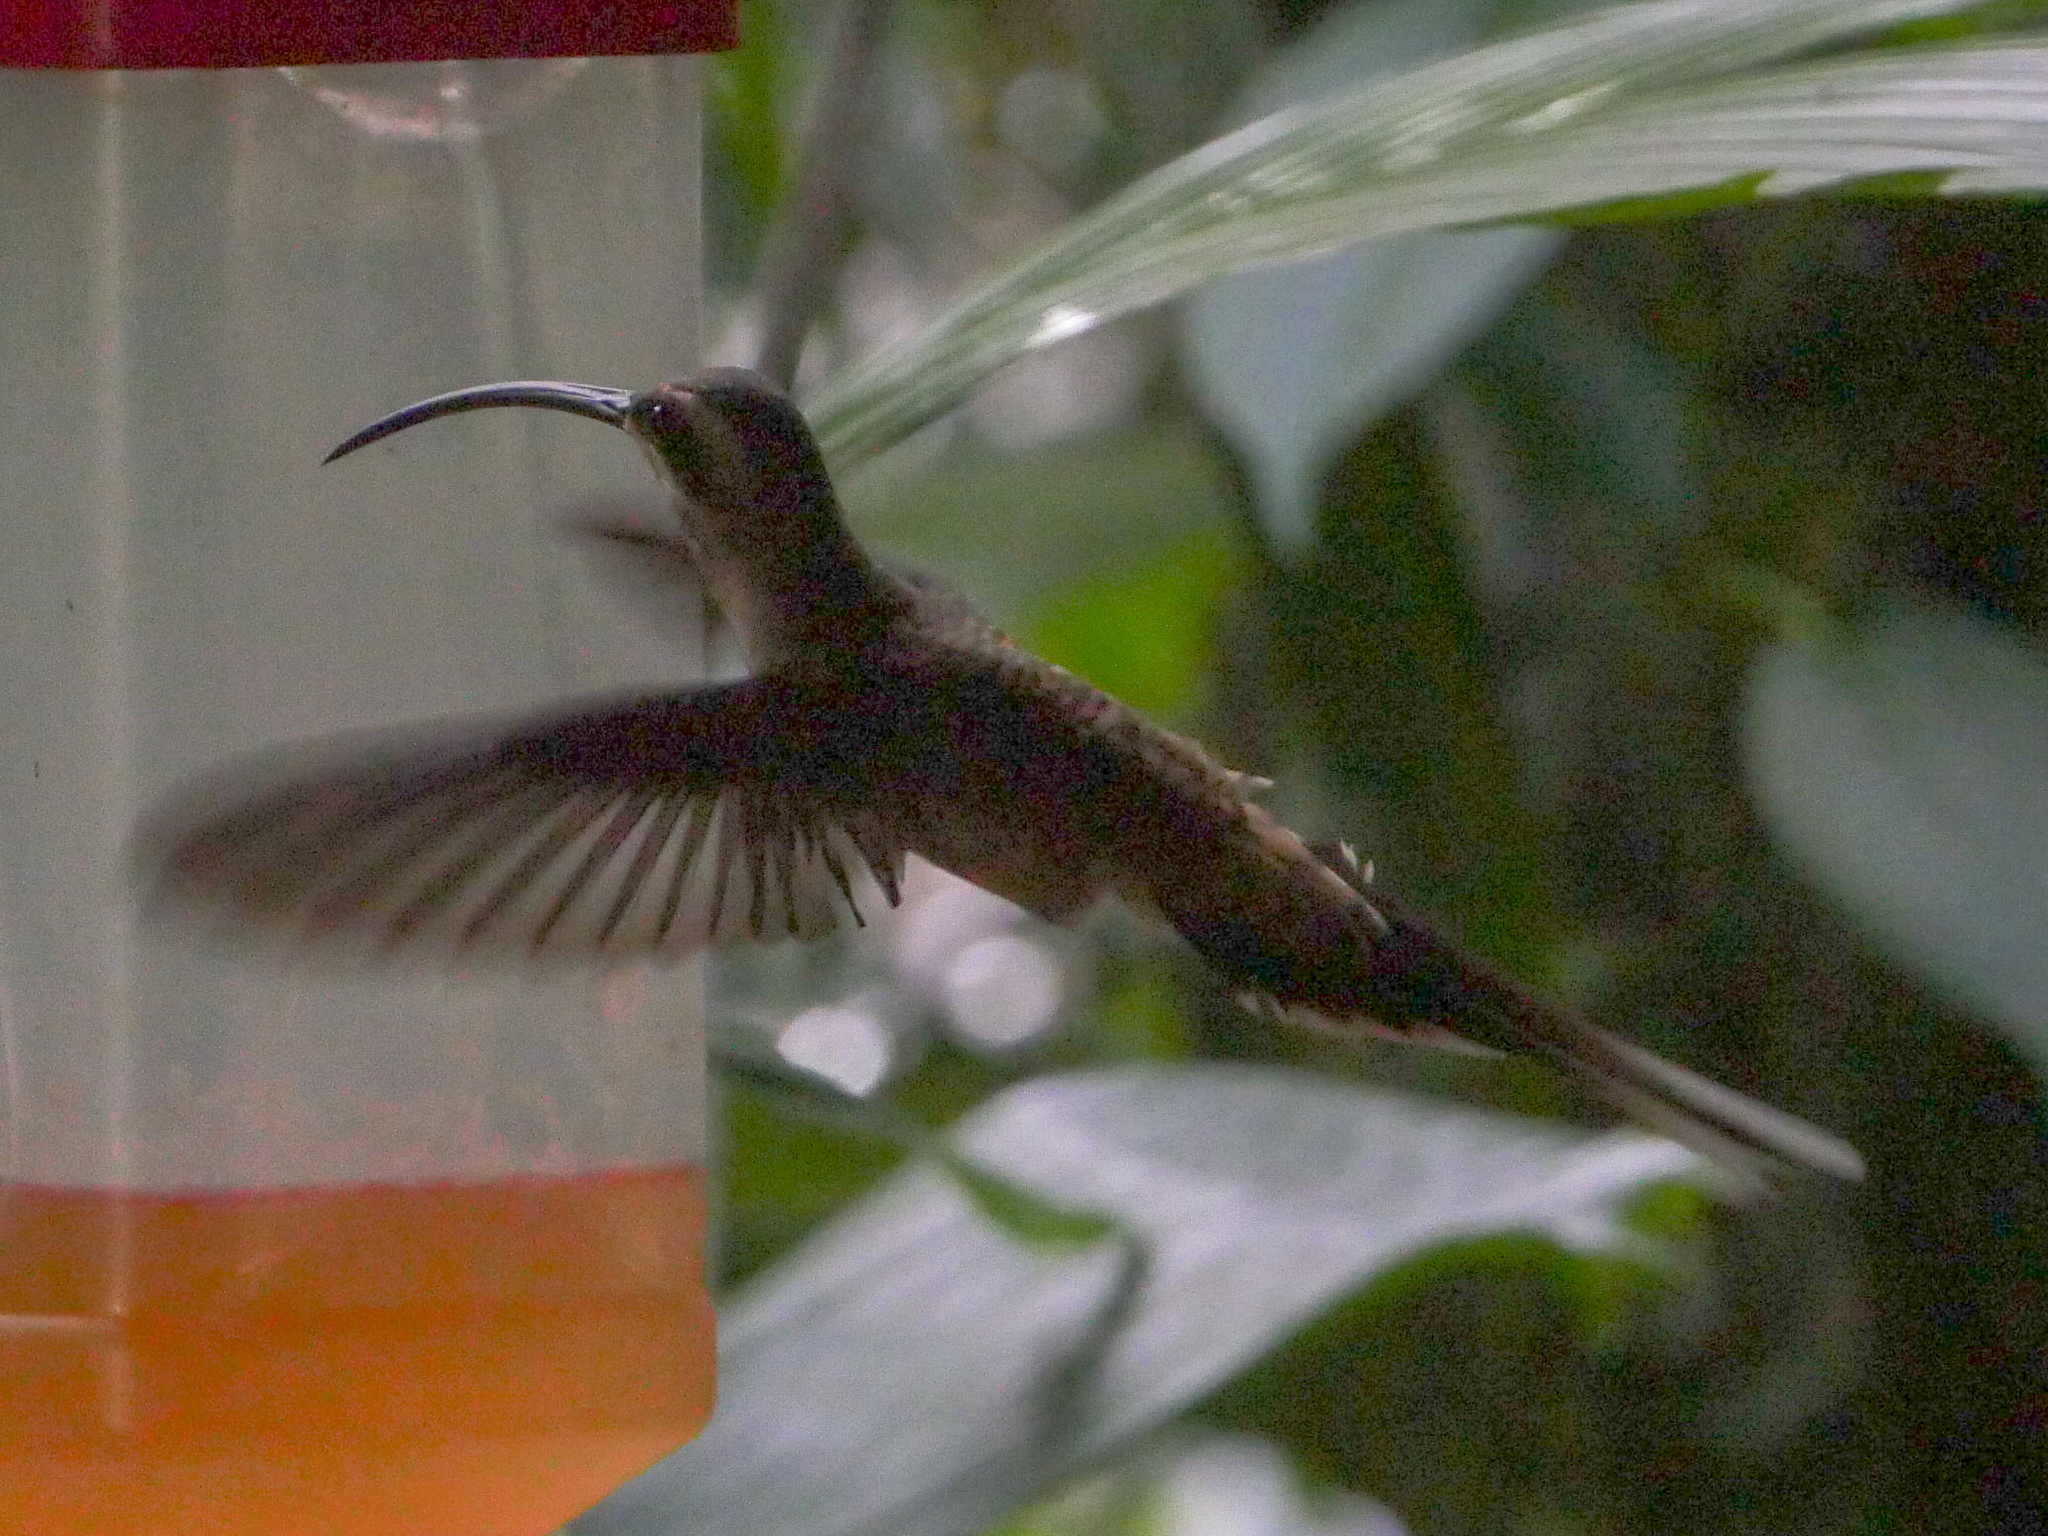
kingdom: Animalia
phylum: Chordata
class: Aves
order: Apodiformes
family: Trochilidae
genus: Phaethornis
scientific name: Phaethornis longirostris
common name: Long-billed hermit
